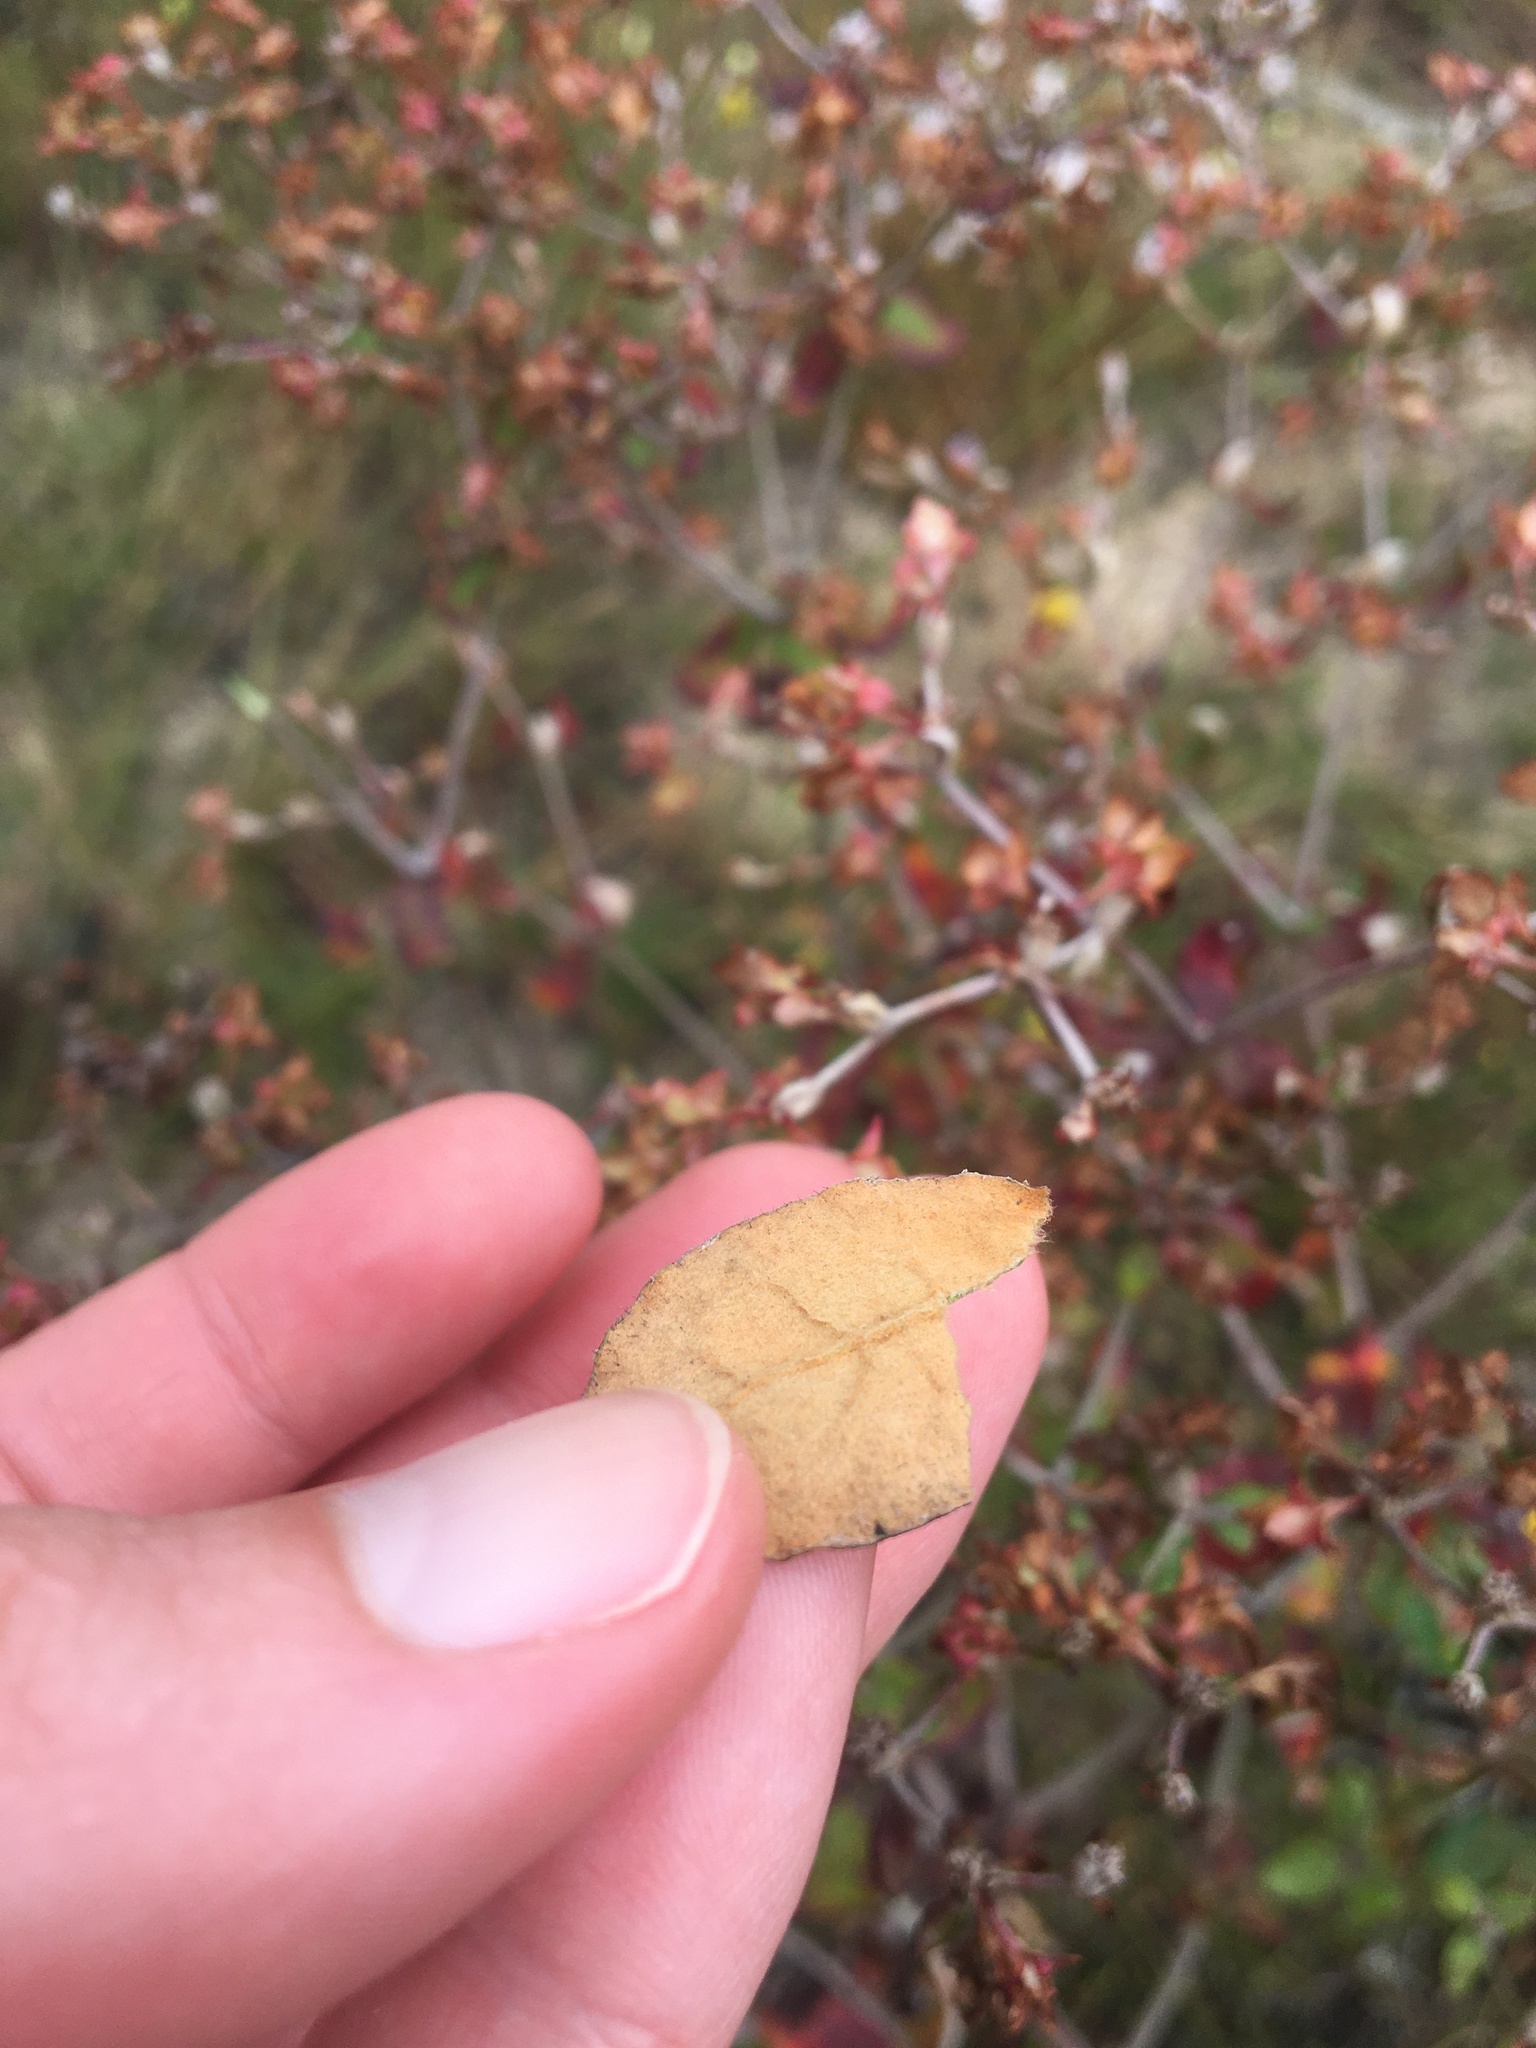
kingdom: Plantae
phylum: Tracheophyta
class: Magnoliopsida
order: Caryophyllales
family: Polygonaceae
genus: Eriogonum
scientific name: Eriogonum tomentosum
